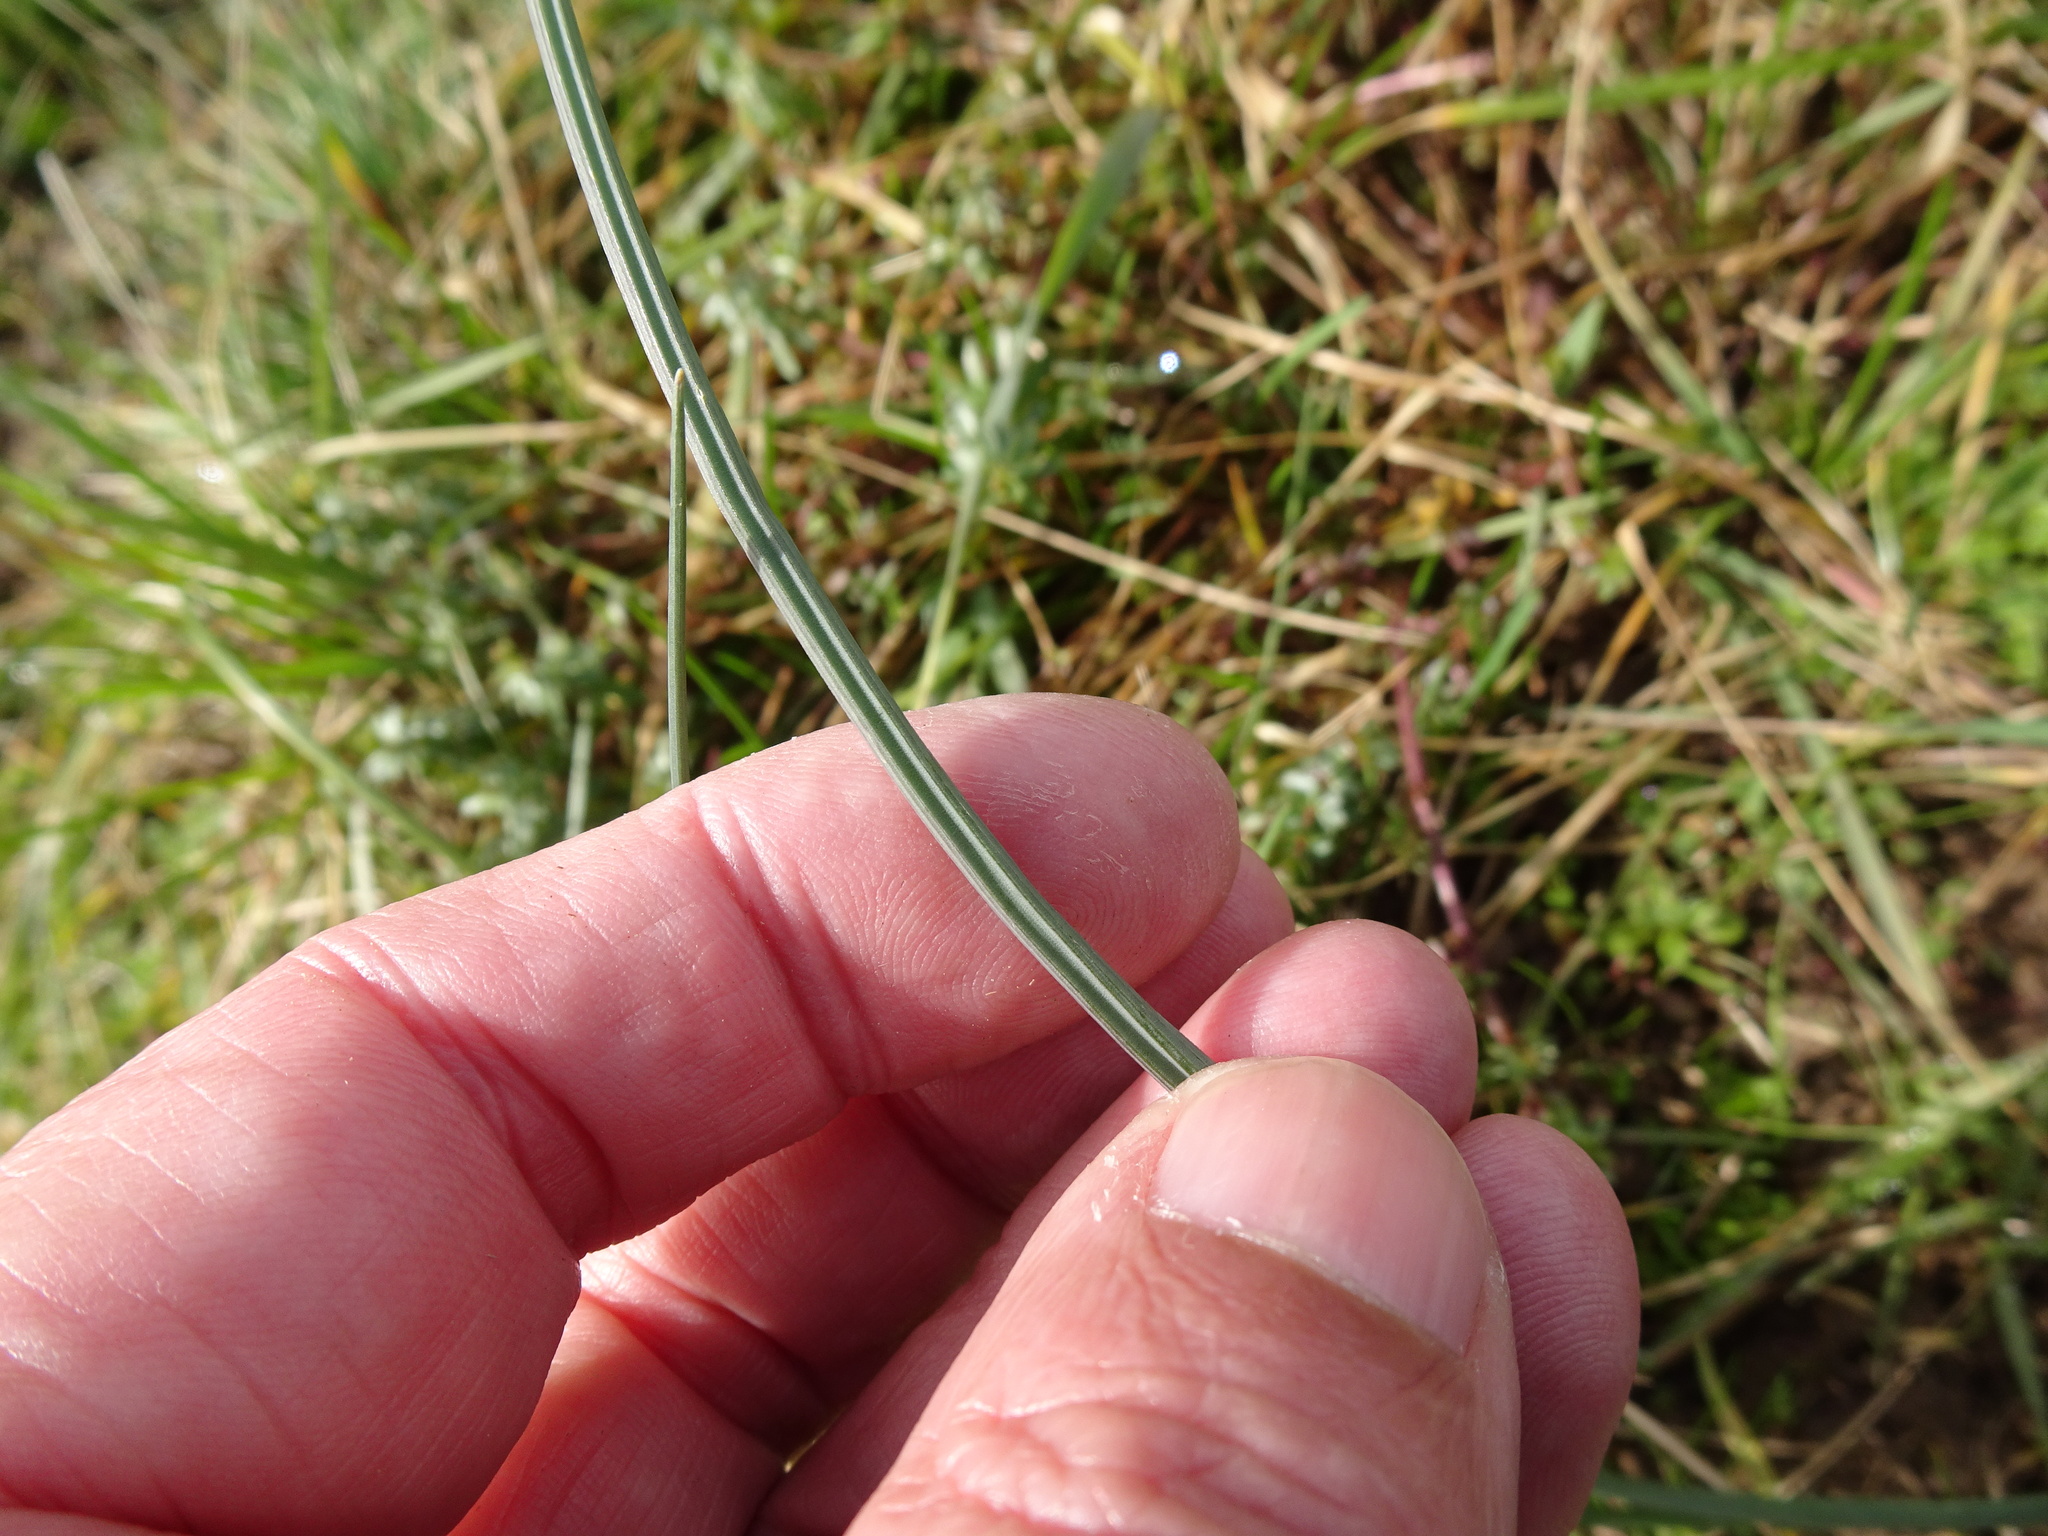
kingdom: Plantae
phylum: Tracheophyta
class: Liliopsida
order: Asparagales
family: Amaryllidaceae
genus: Allium
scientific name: Allium vineale
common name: Crow garlic
